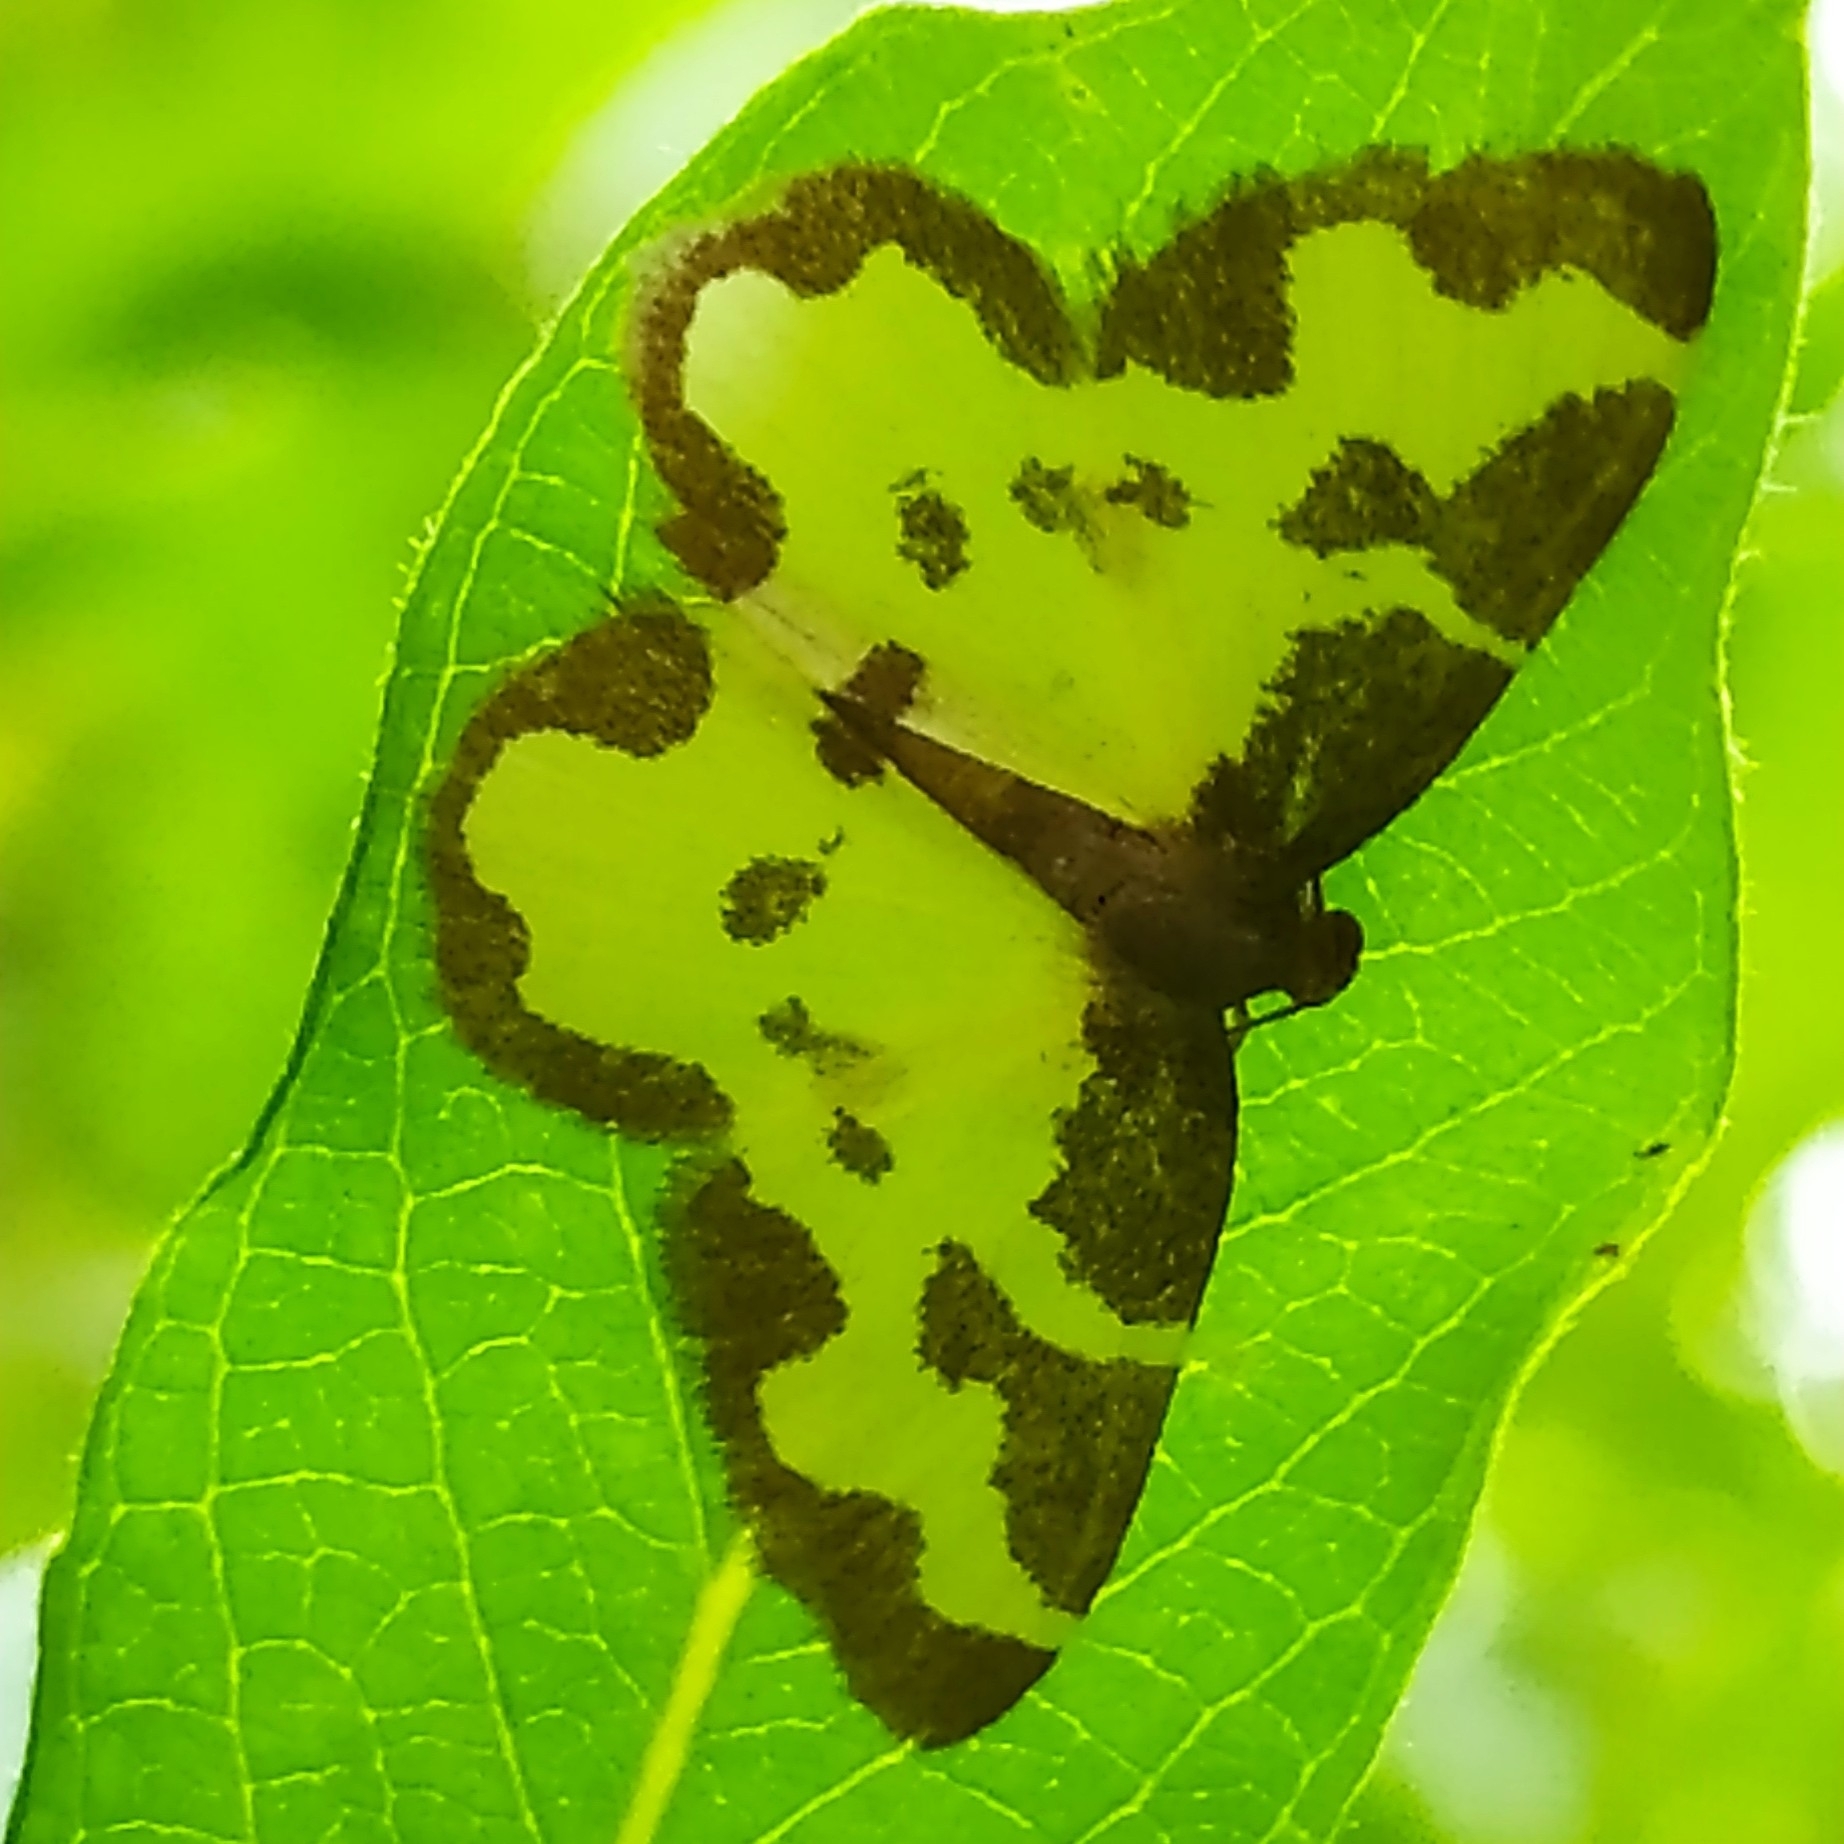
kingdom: Animalia
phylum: Arthropoda
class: Insecta
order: Lepidoptera
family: Geometridae
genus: Lomaspilis
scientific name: Lomaspilis marginata
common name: Clouded border
